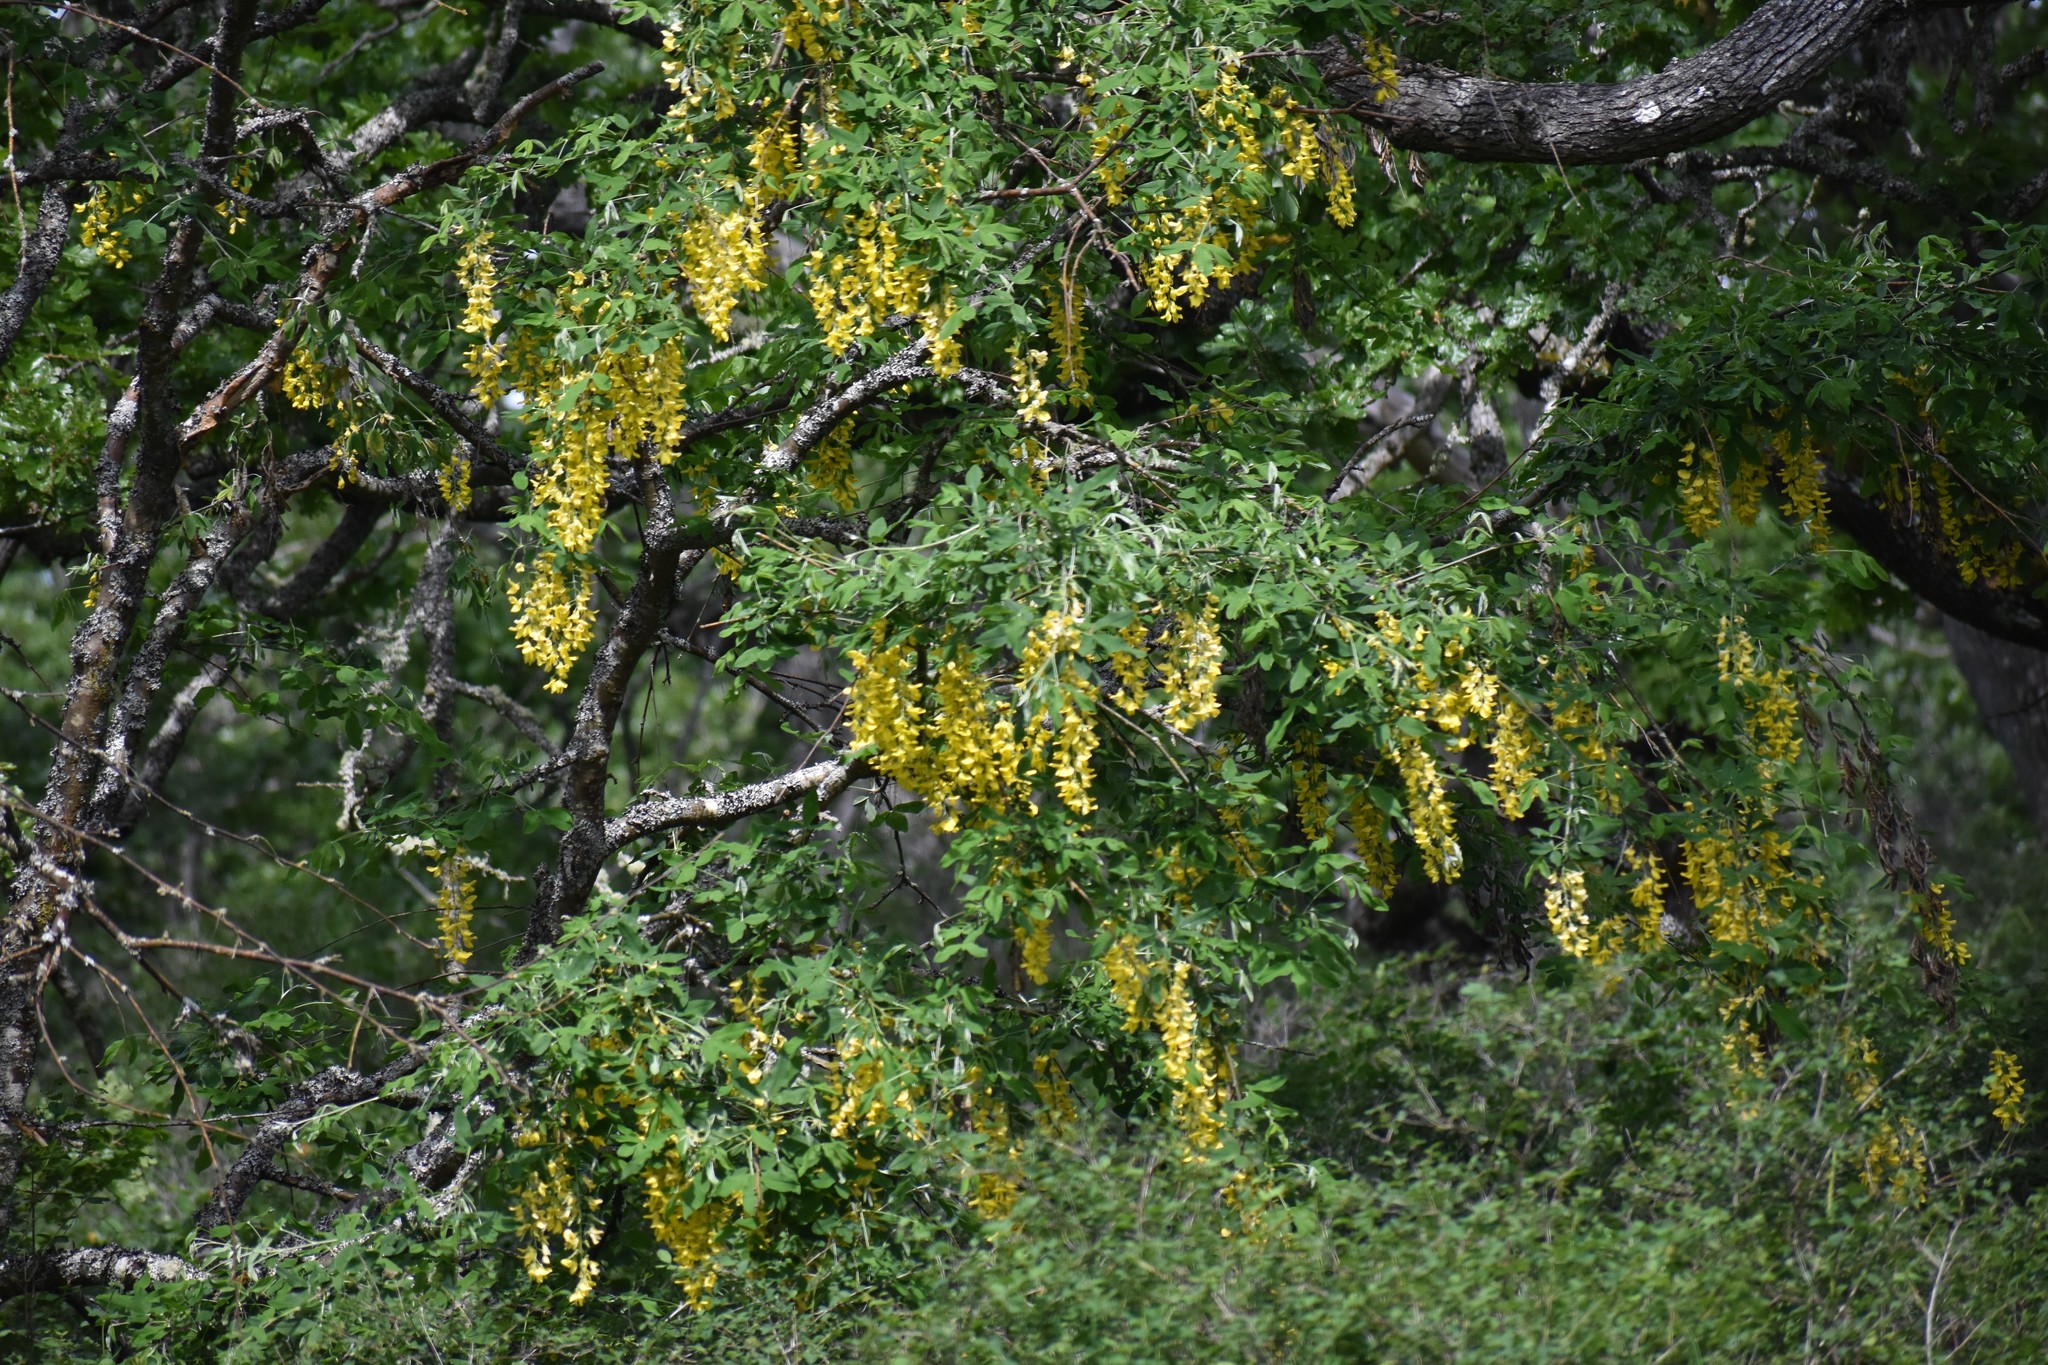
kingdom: Plantae
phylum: Tracheophyta
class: Magnoliopsida
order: Fabales
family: Fabaceae
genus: Laburnum
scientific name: Laburnum anagyroides
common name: Laburnum
